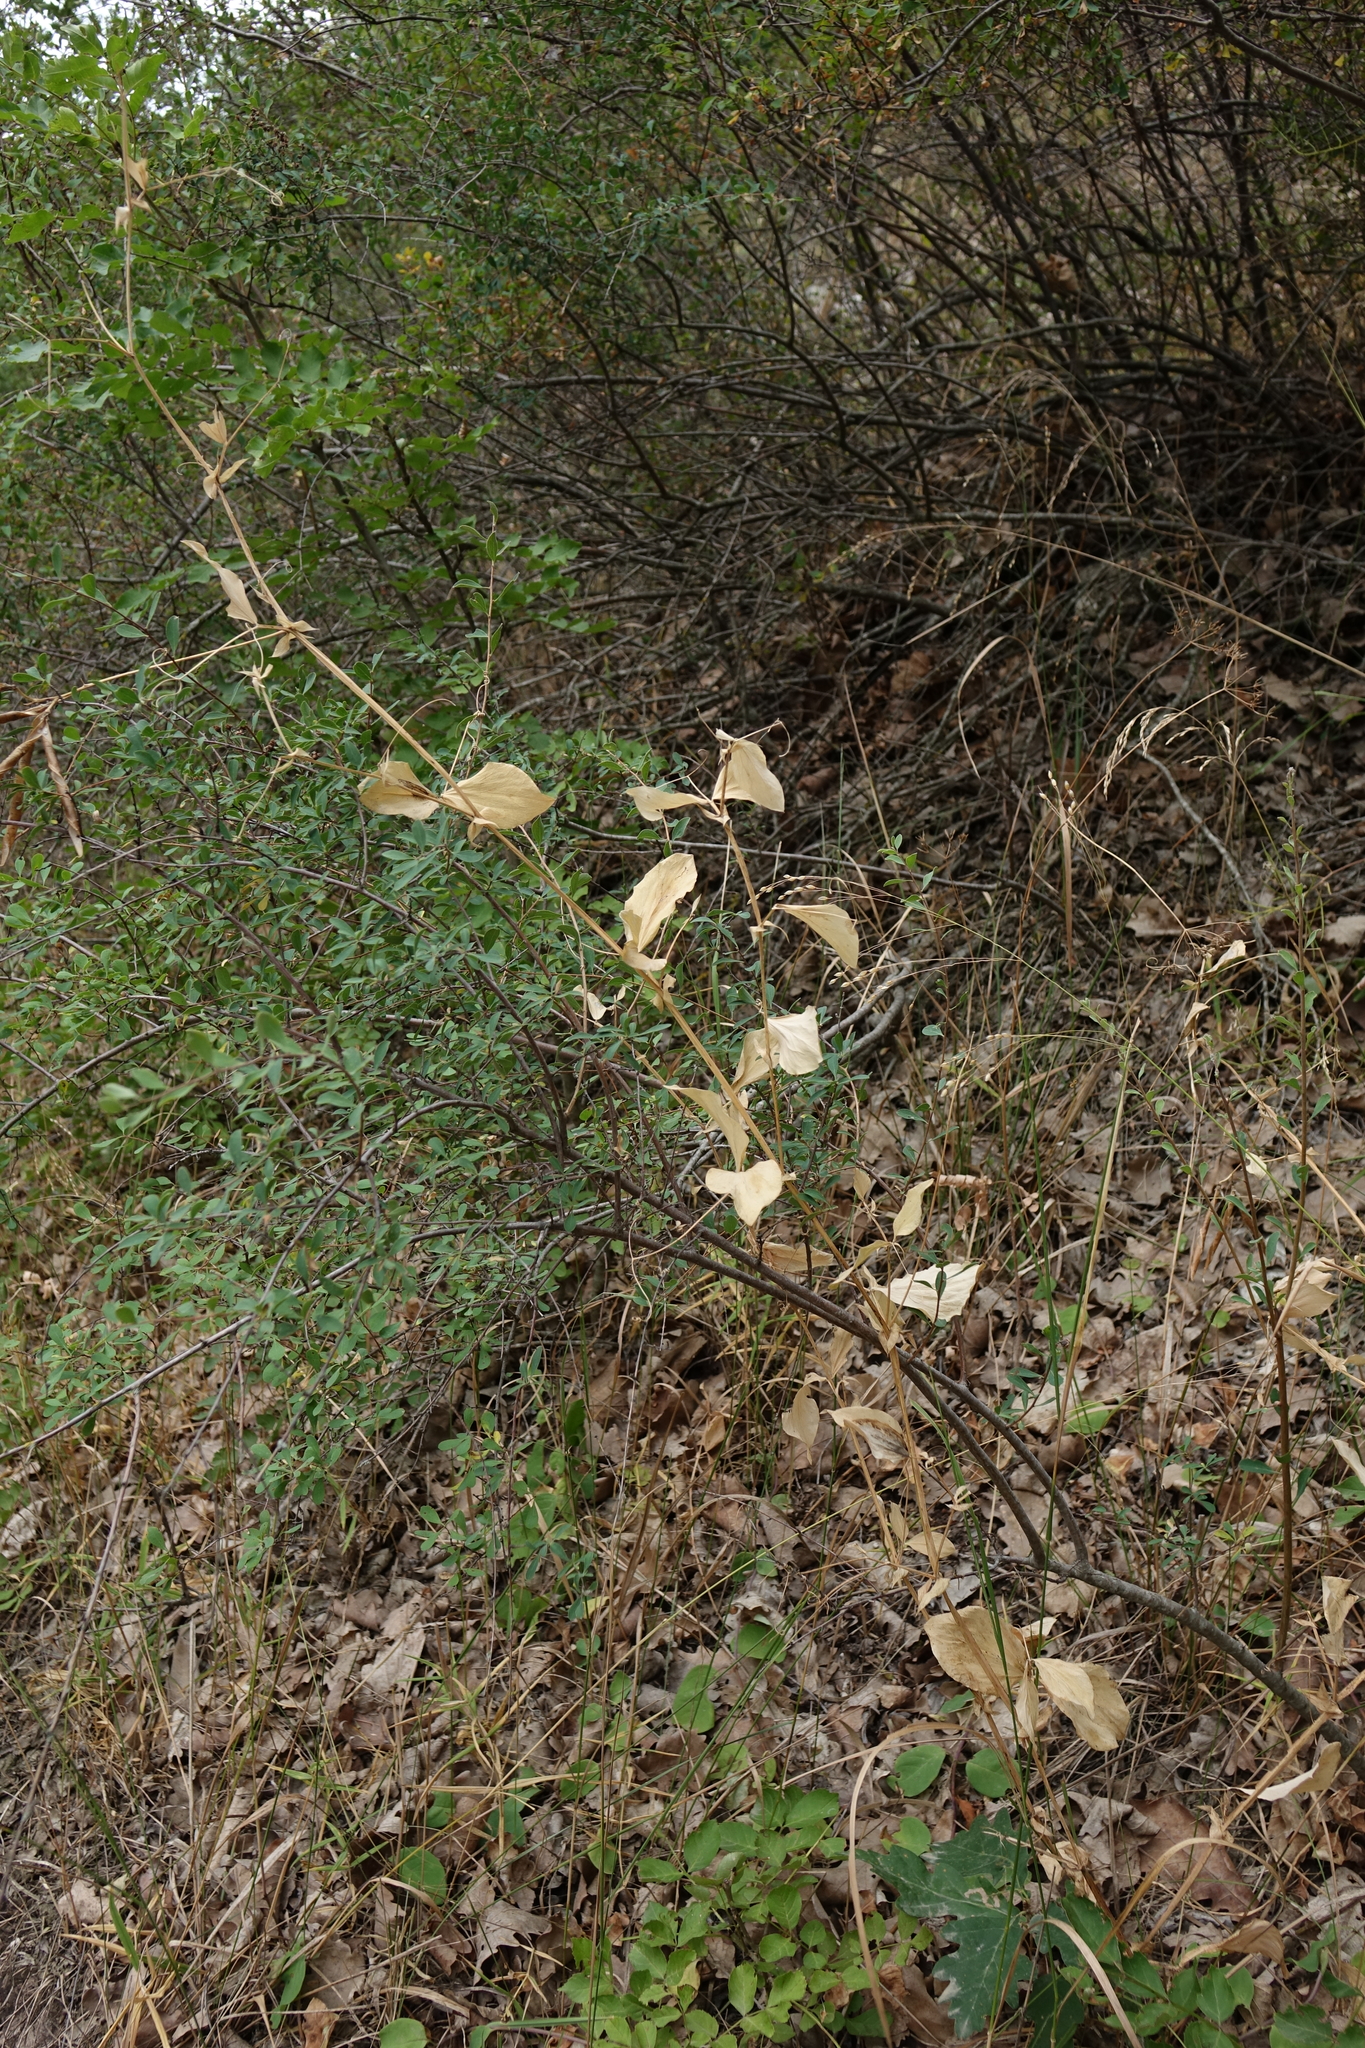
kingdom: Plantae
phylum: Tracheophyta
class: Magnoliopsida
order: Fabales
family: Fabaceae
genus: Lathyrus
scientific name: Lathyrus miniatus
